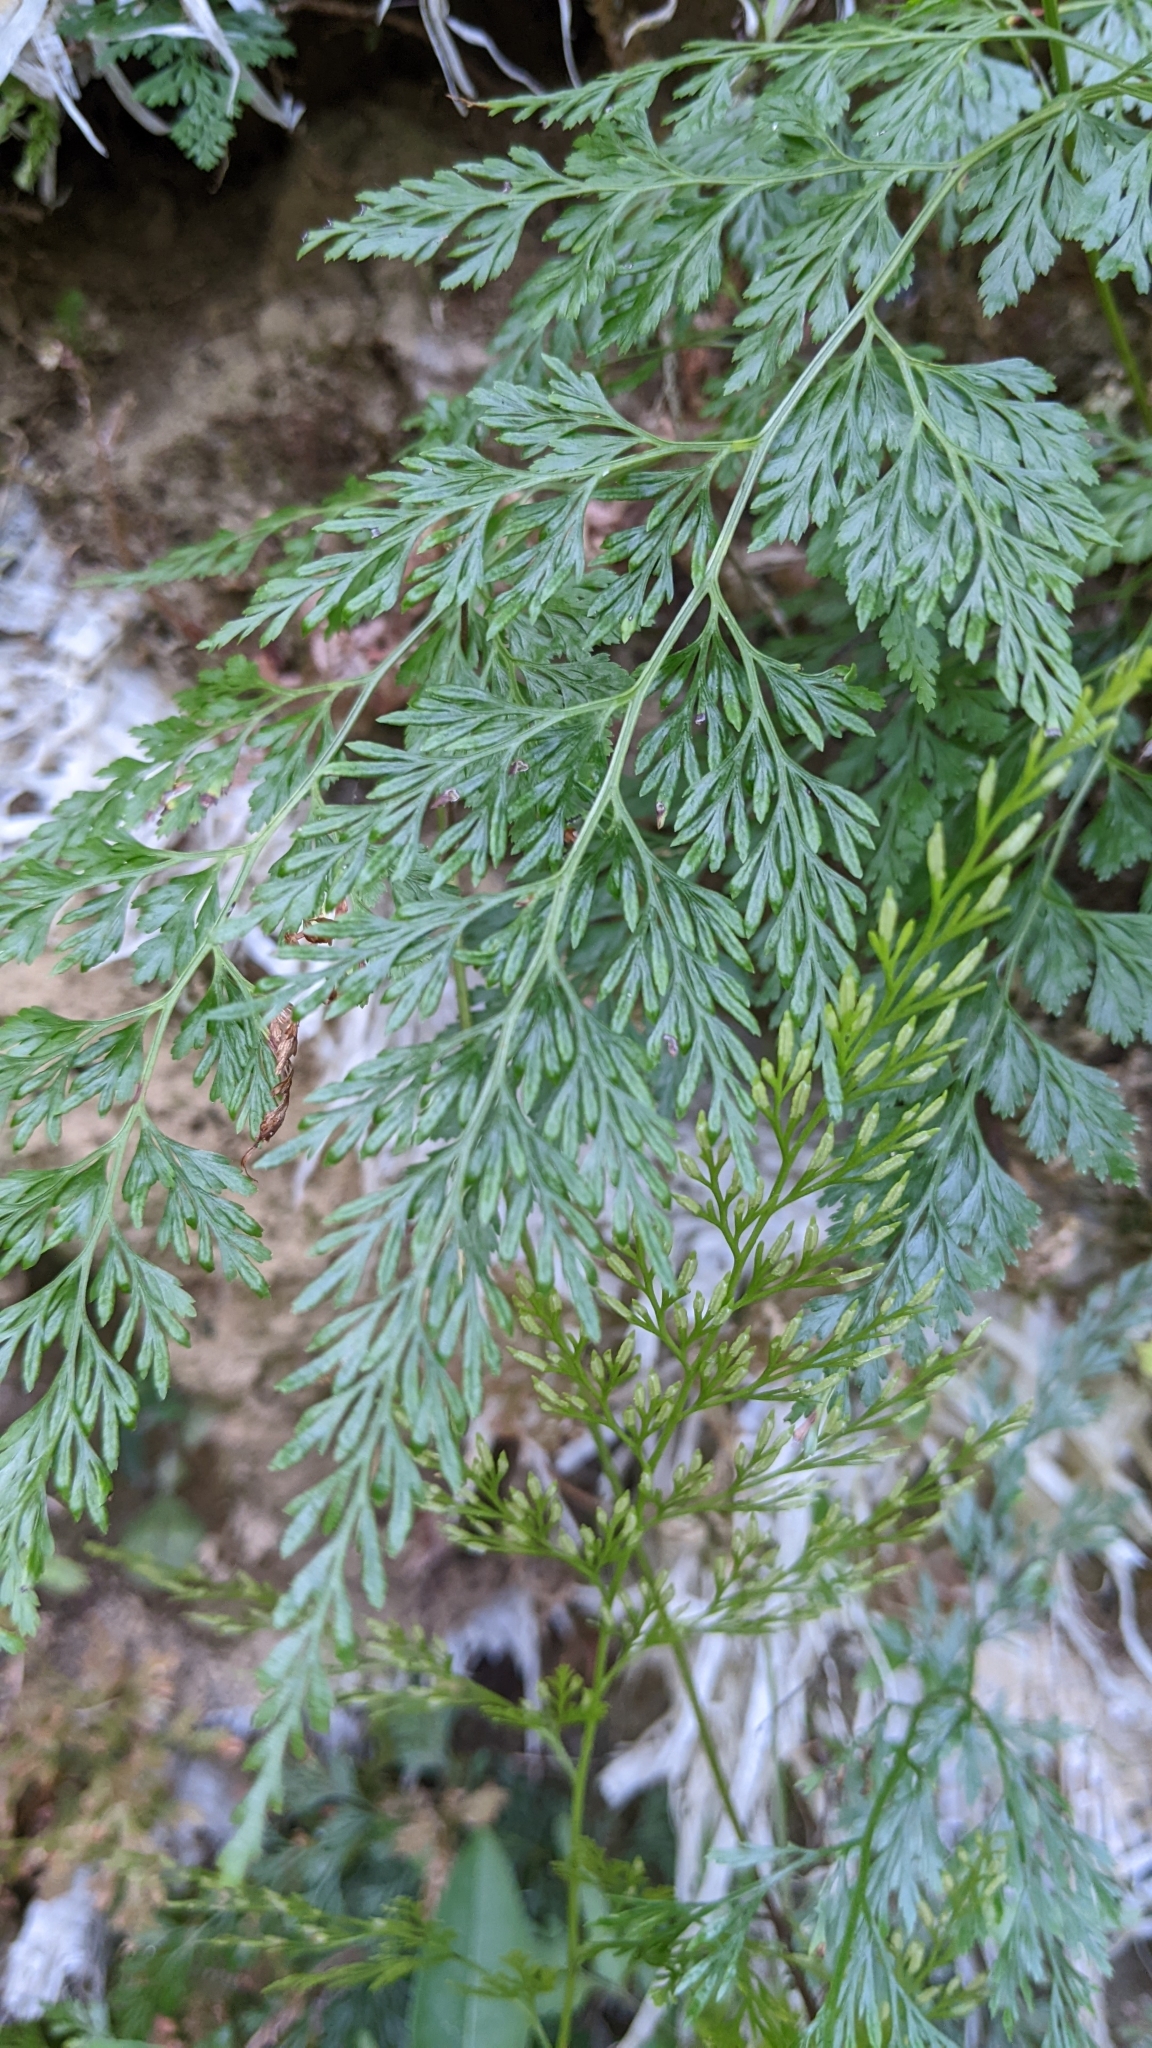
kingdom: Plantae
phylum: Tracheophyta
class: Polypodiopsida
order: Polypodiales
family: Pteridaceae
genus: Onychium
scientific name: Onychium japonicum
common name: Carrot fern
